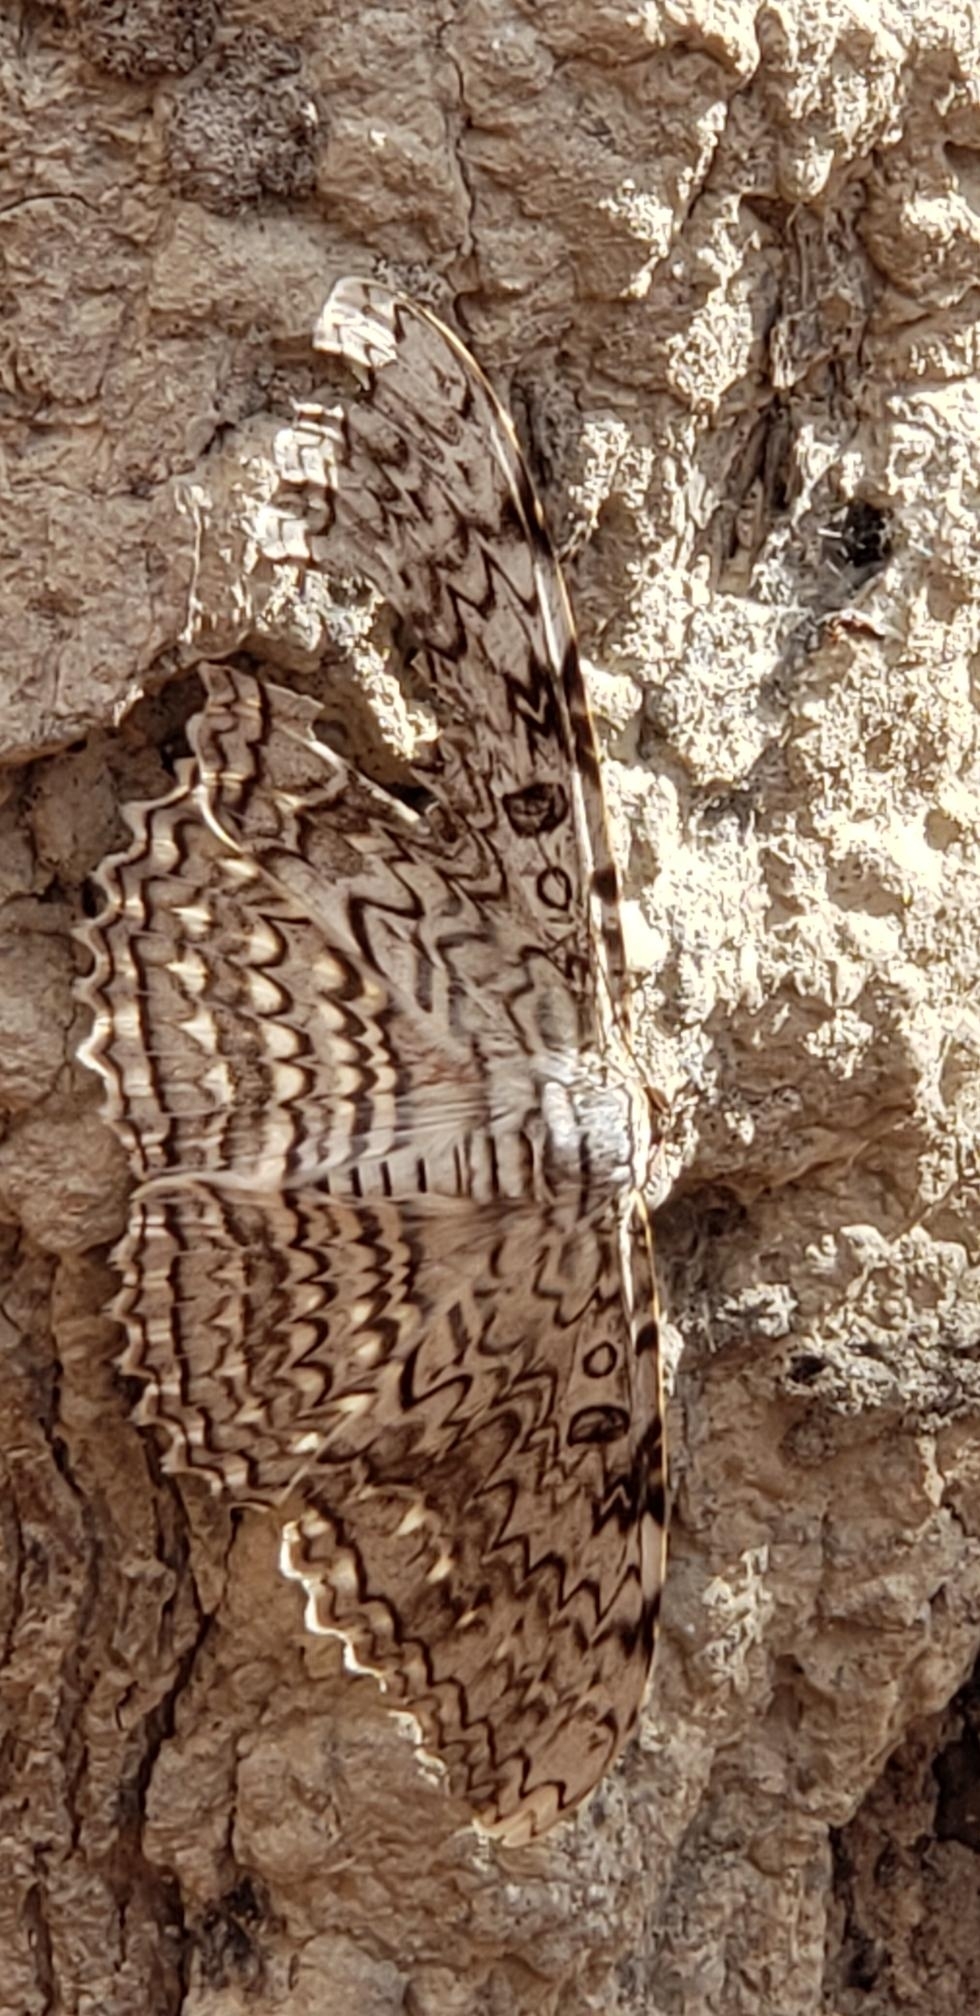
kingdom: Animalia
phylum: Arthropoda
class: Insecta
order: Lepidoptera
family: Erebidae
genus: Thysania
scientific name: Thysania agrippina
